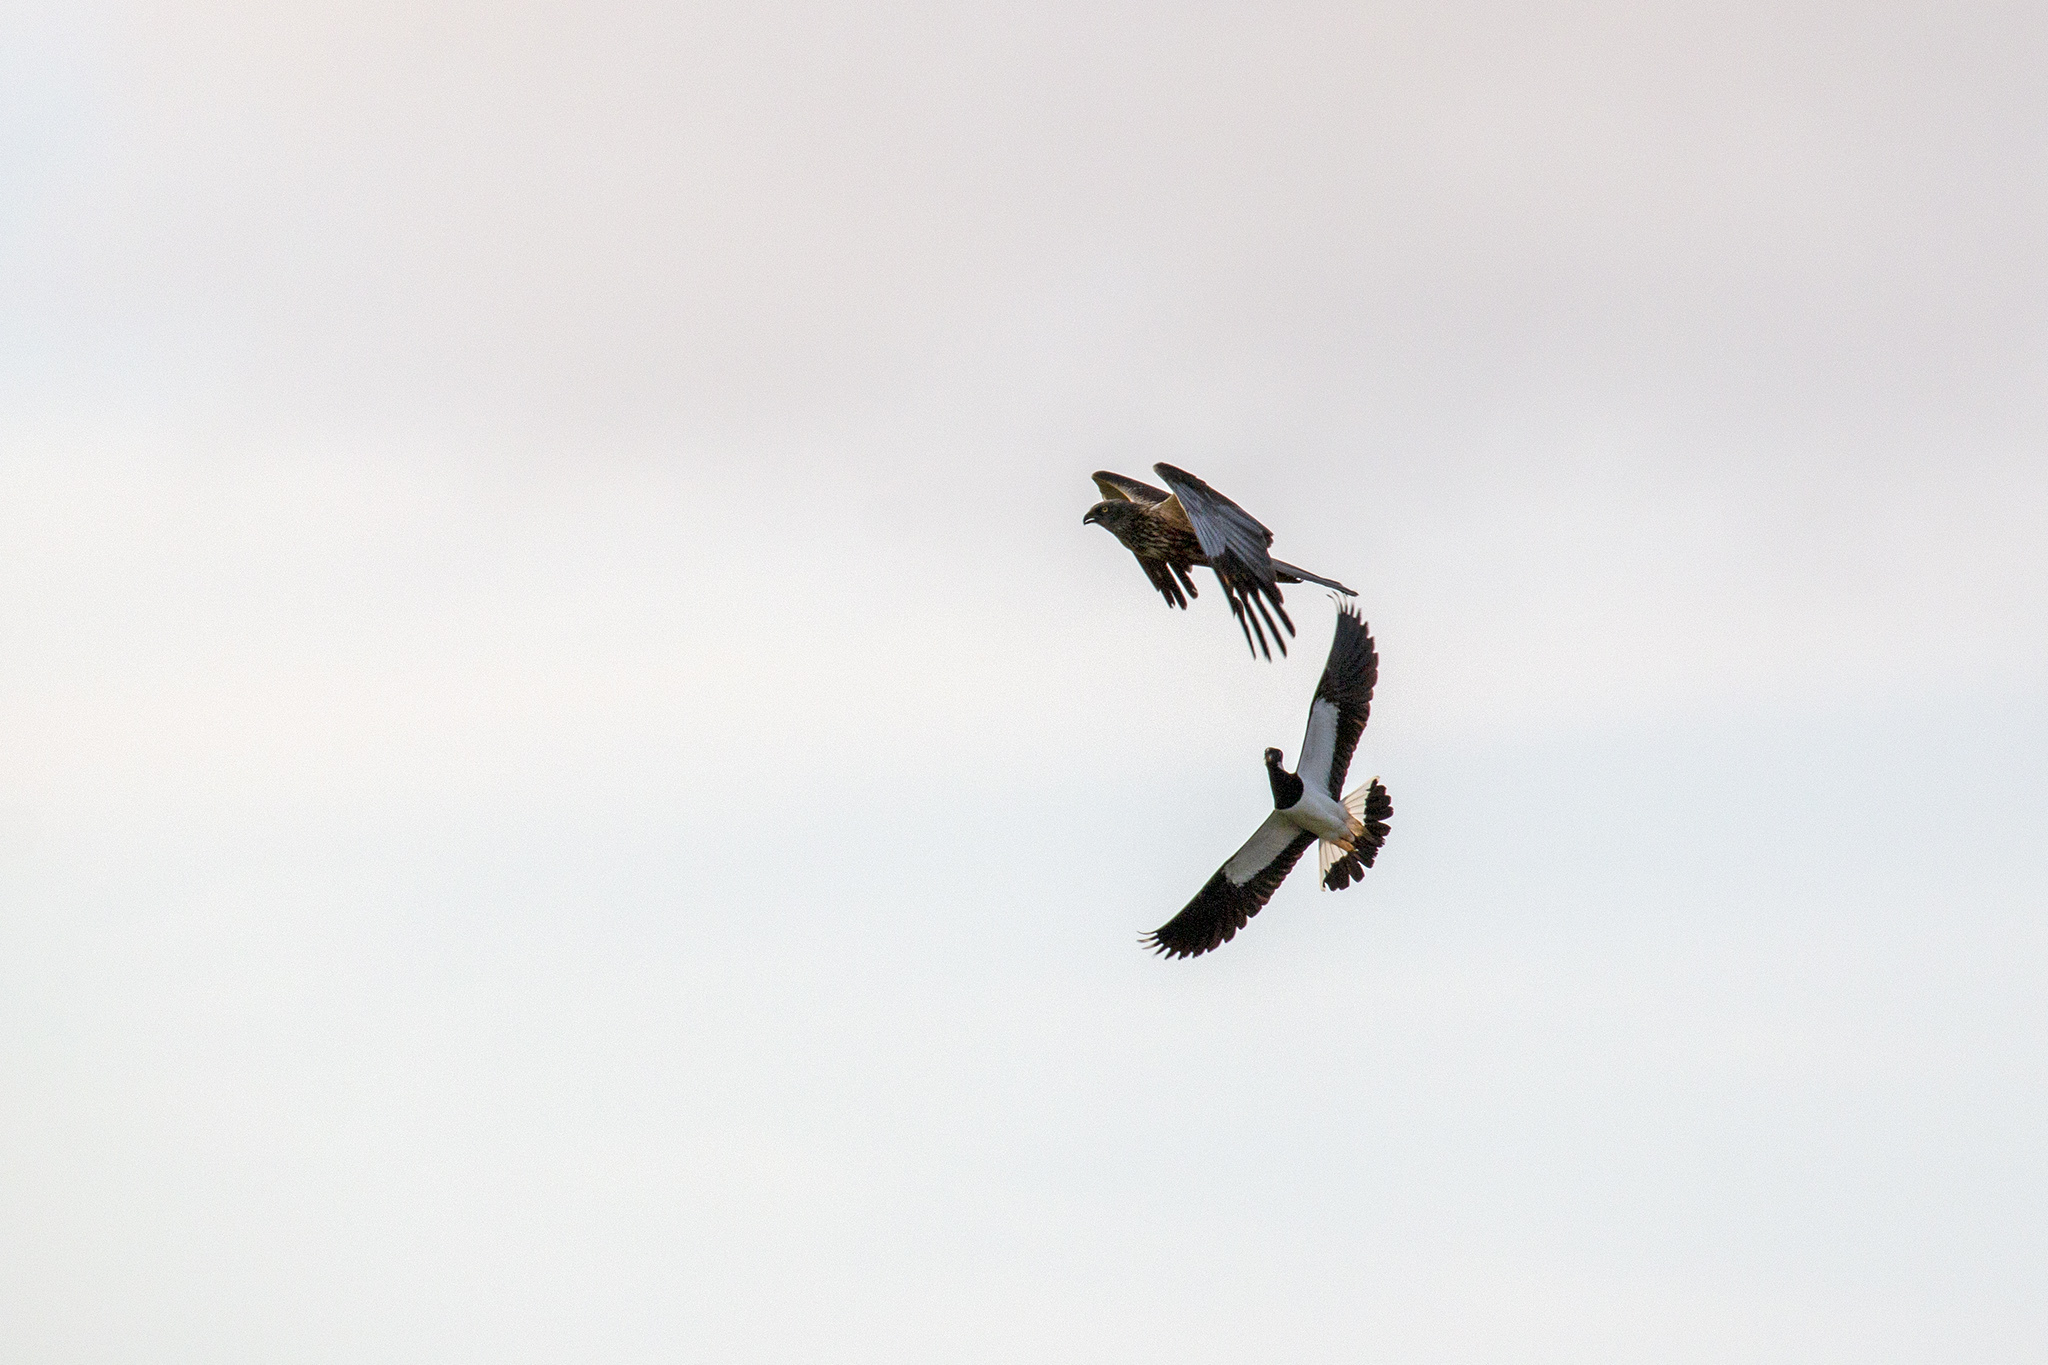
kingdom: Animalia
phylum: Chordata
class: Aves
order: Accipitriformes
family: Accipitridae
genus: Circus
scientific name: Circus aeruginosus
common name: Western marsh harrier
